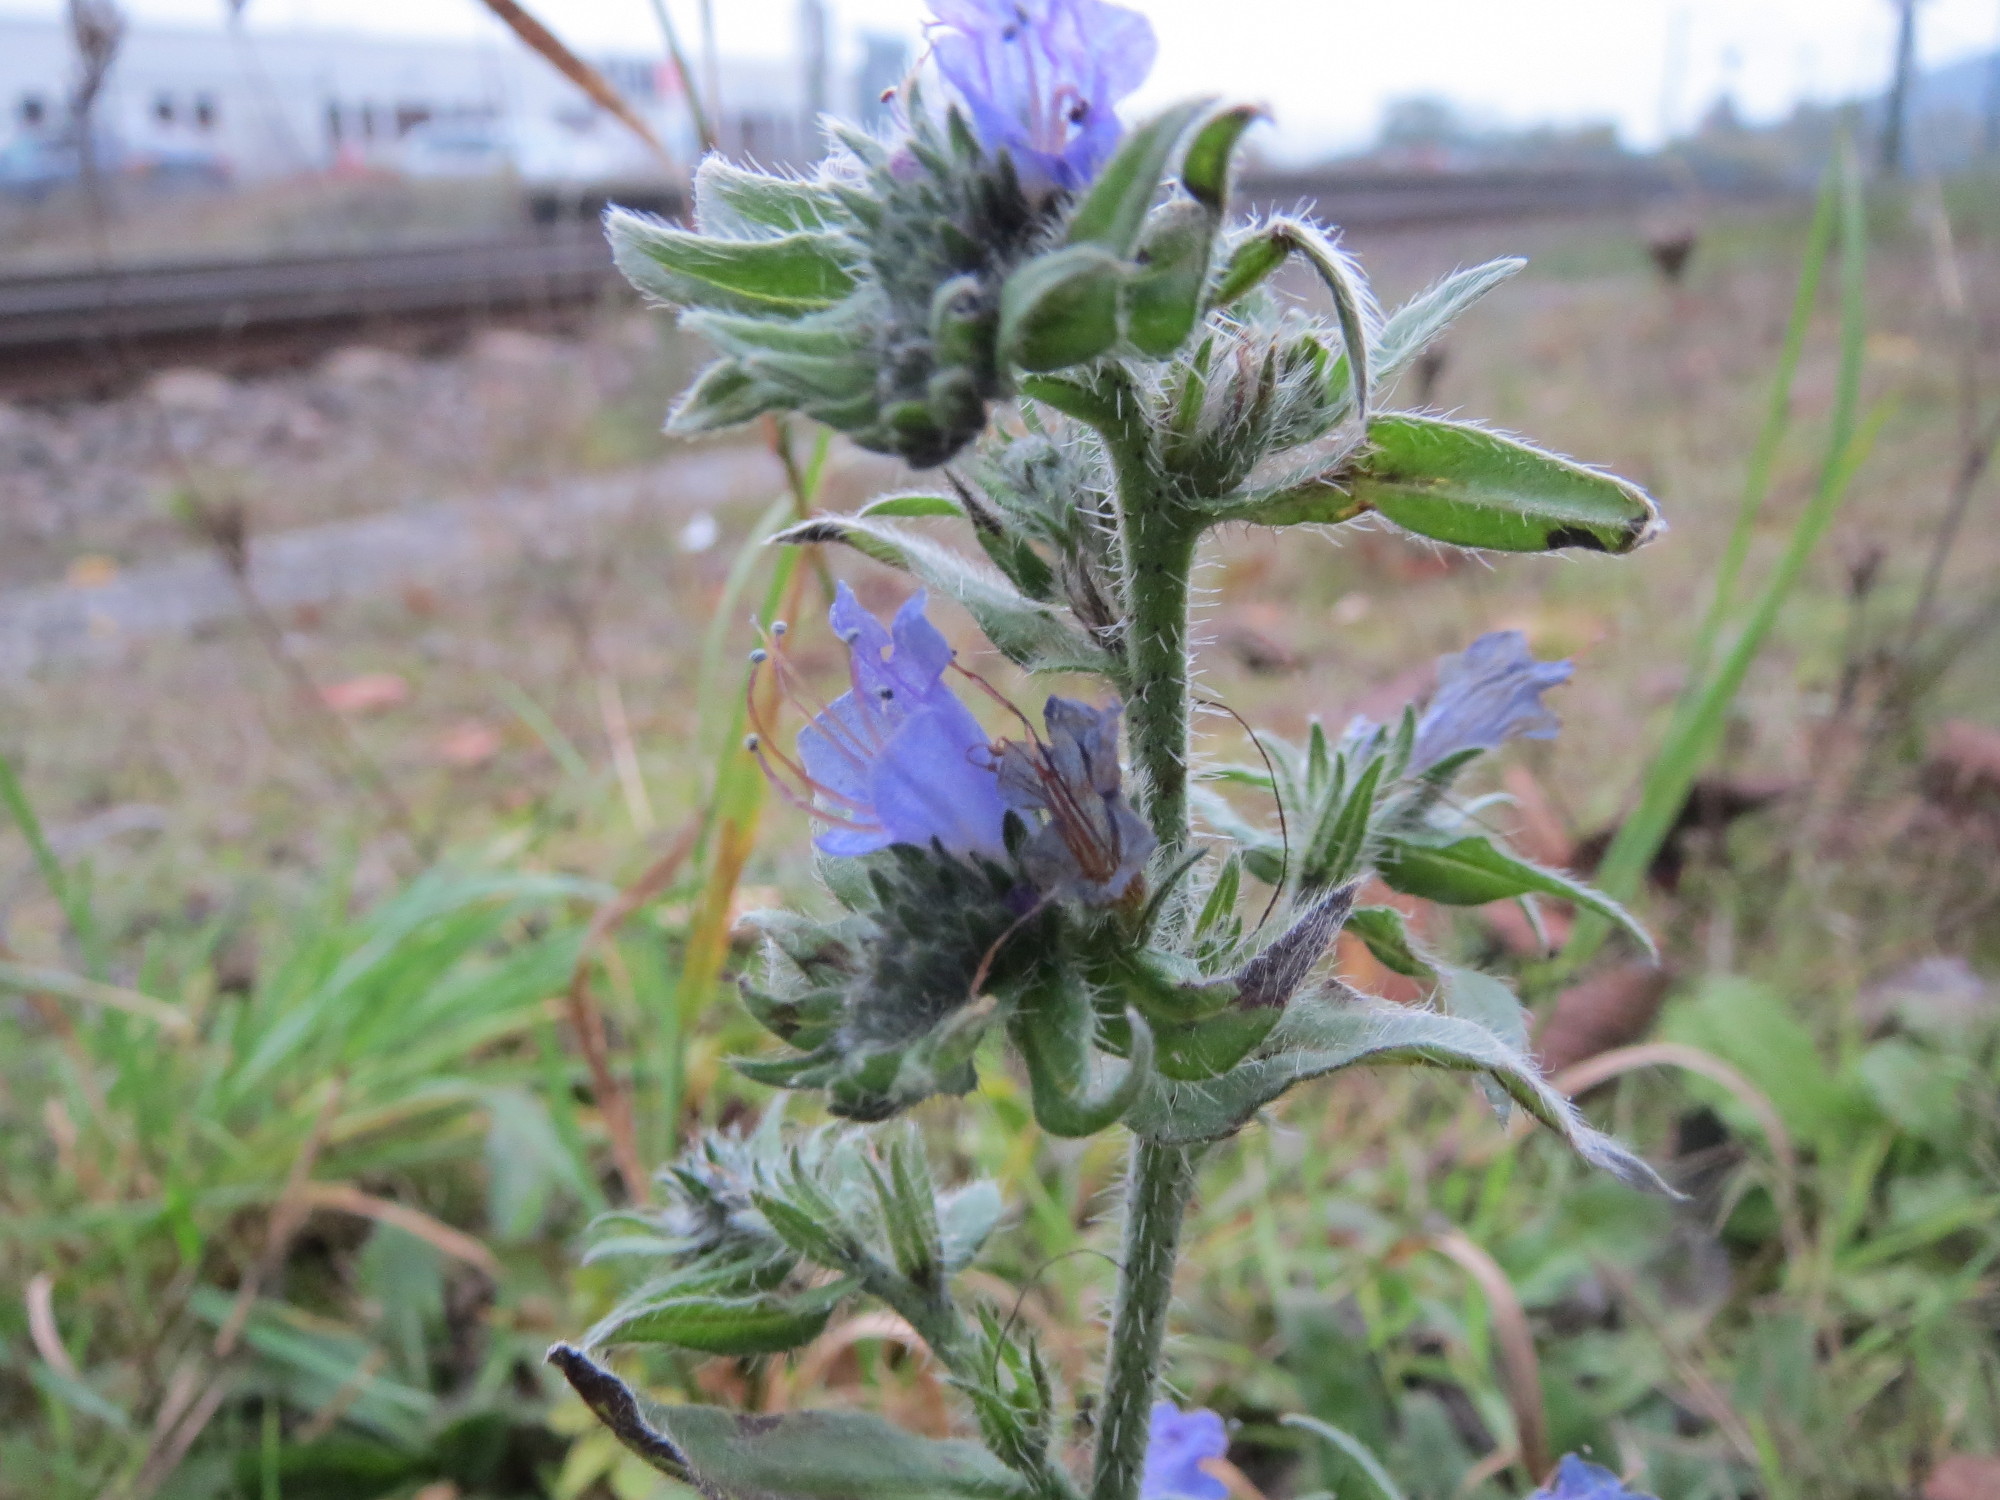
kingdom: Plantae
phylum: Tracheophyta
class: Magnoliopsida
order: Boraginales
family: Boraginaceae
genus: Echium
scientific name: Echium vulgare
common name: Common viper's bugloss
